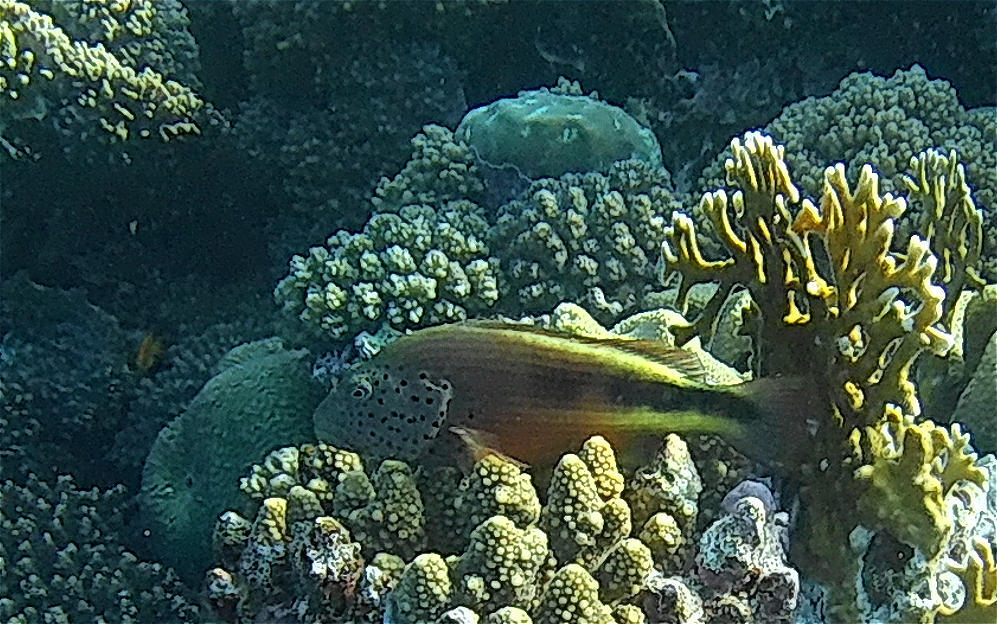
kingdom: Animalia
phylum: Chordata
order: Perciformes
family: Cirrhitidae
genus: Paracirrhites
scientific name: Paracirrhites forsteri
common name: Freckled hawkfish
